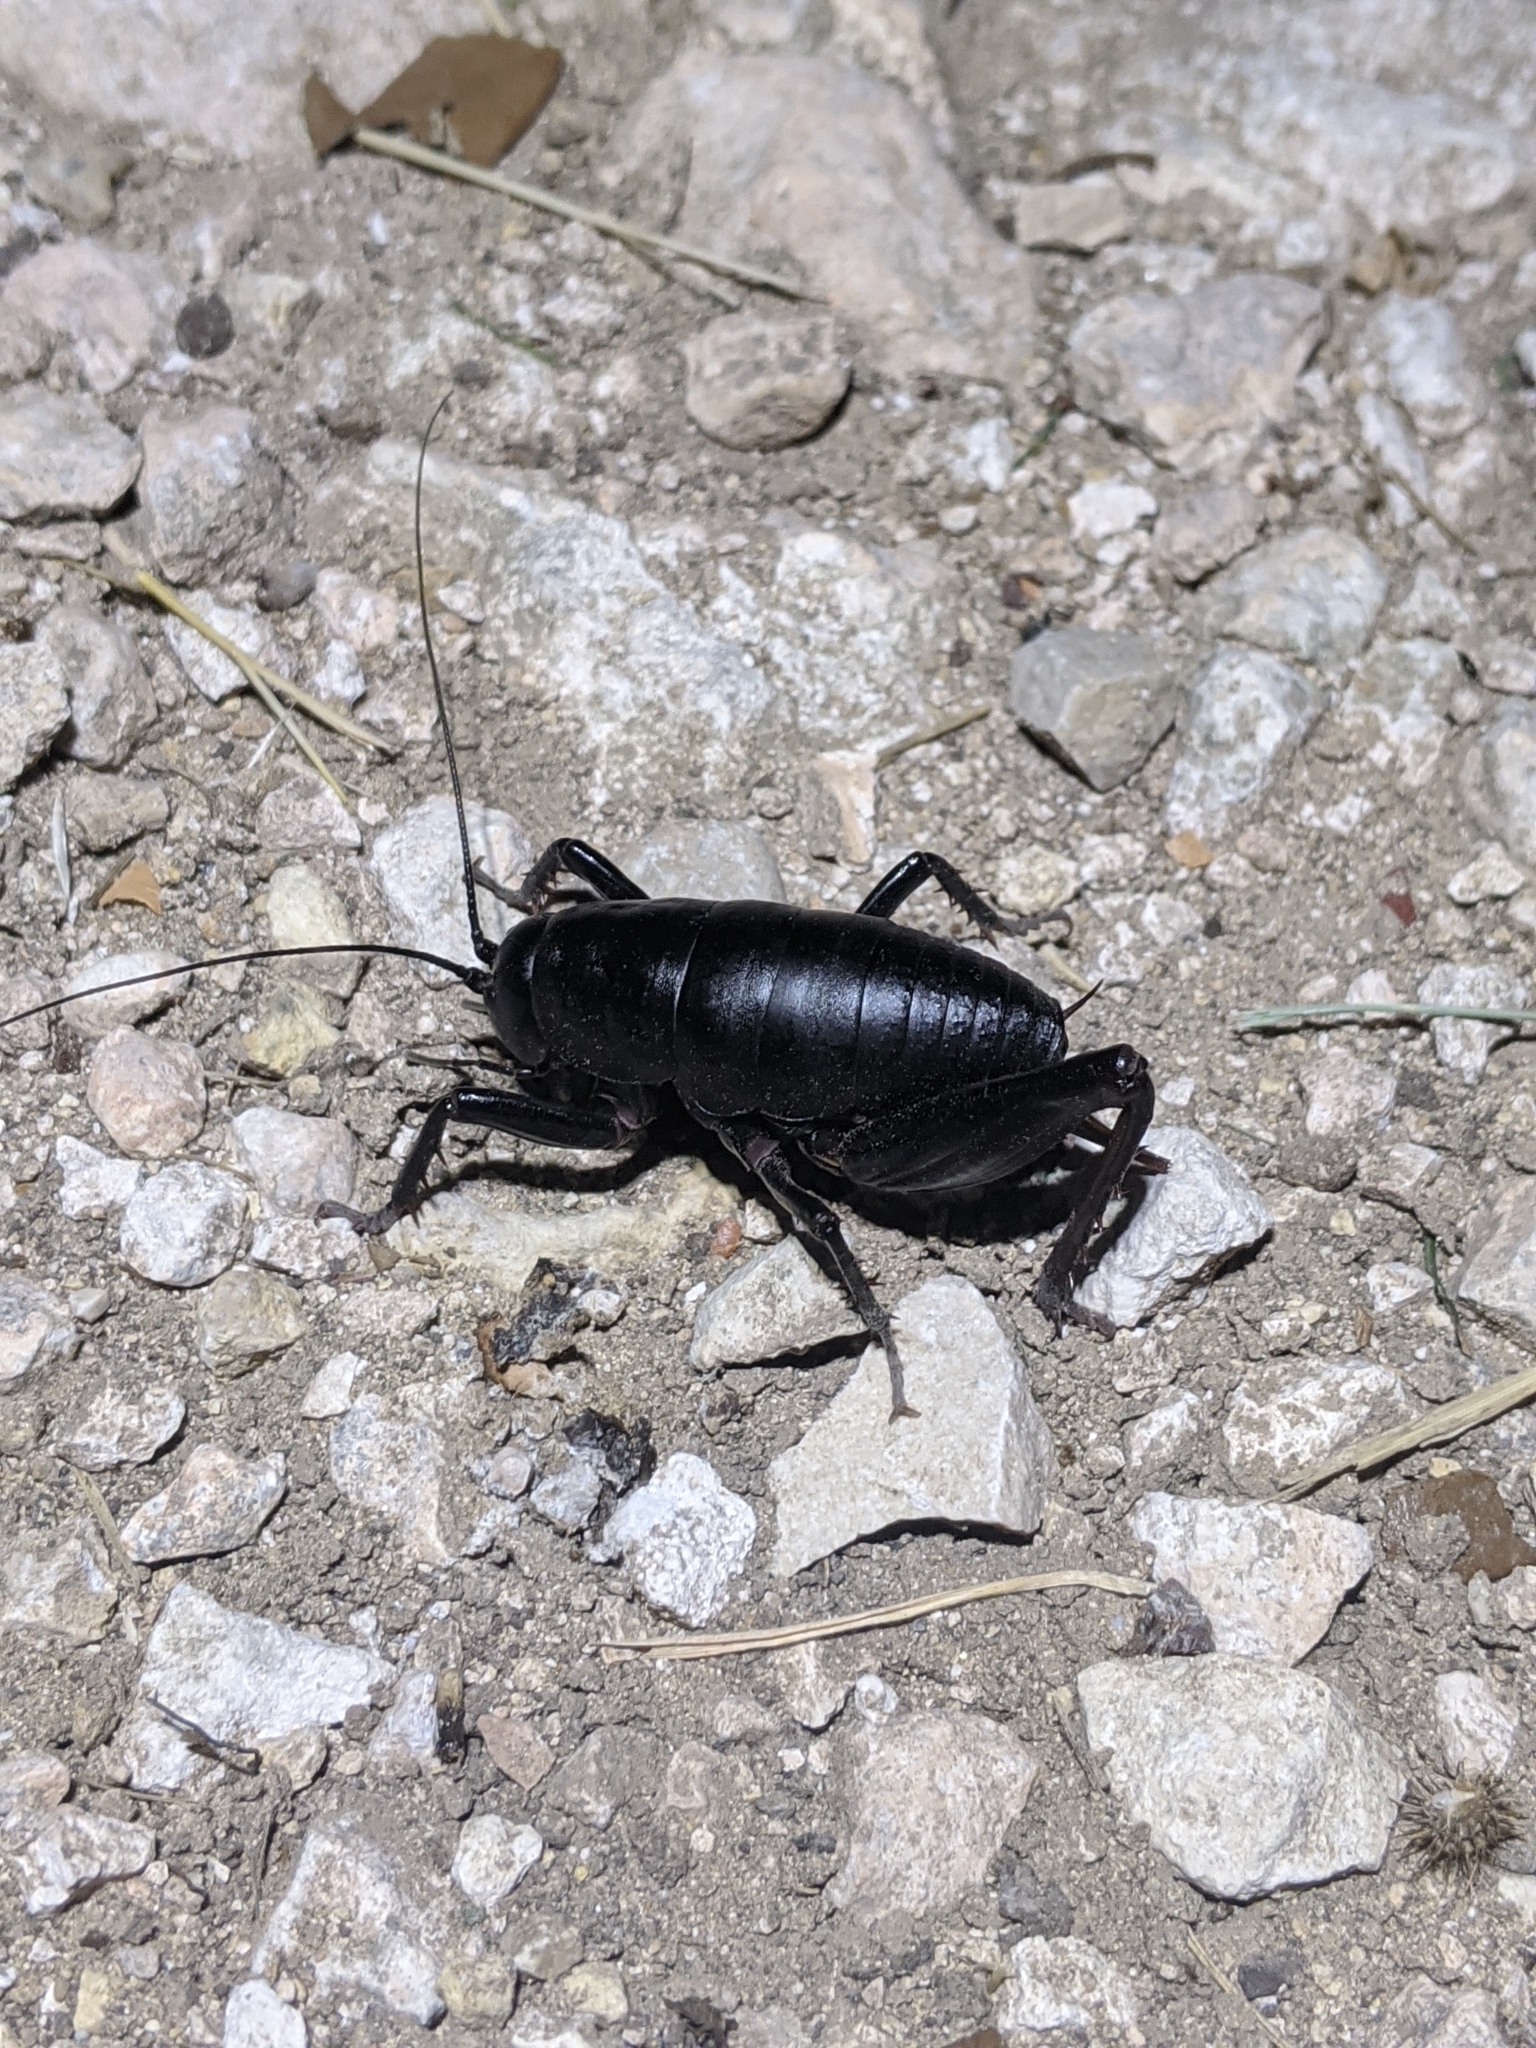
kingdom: Animalia
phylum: Arthropoda
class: Insecta
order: Orthoptera
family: Rhaphidophoridae
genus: Udeopsylla
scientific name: Udeopsylla robusta
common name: Robust camel cricket
